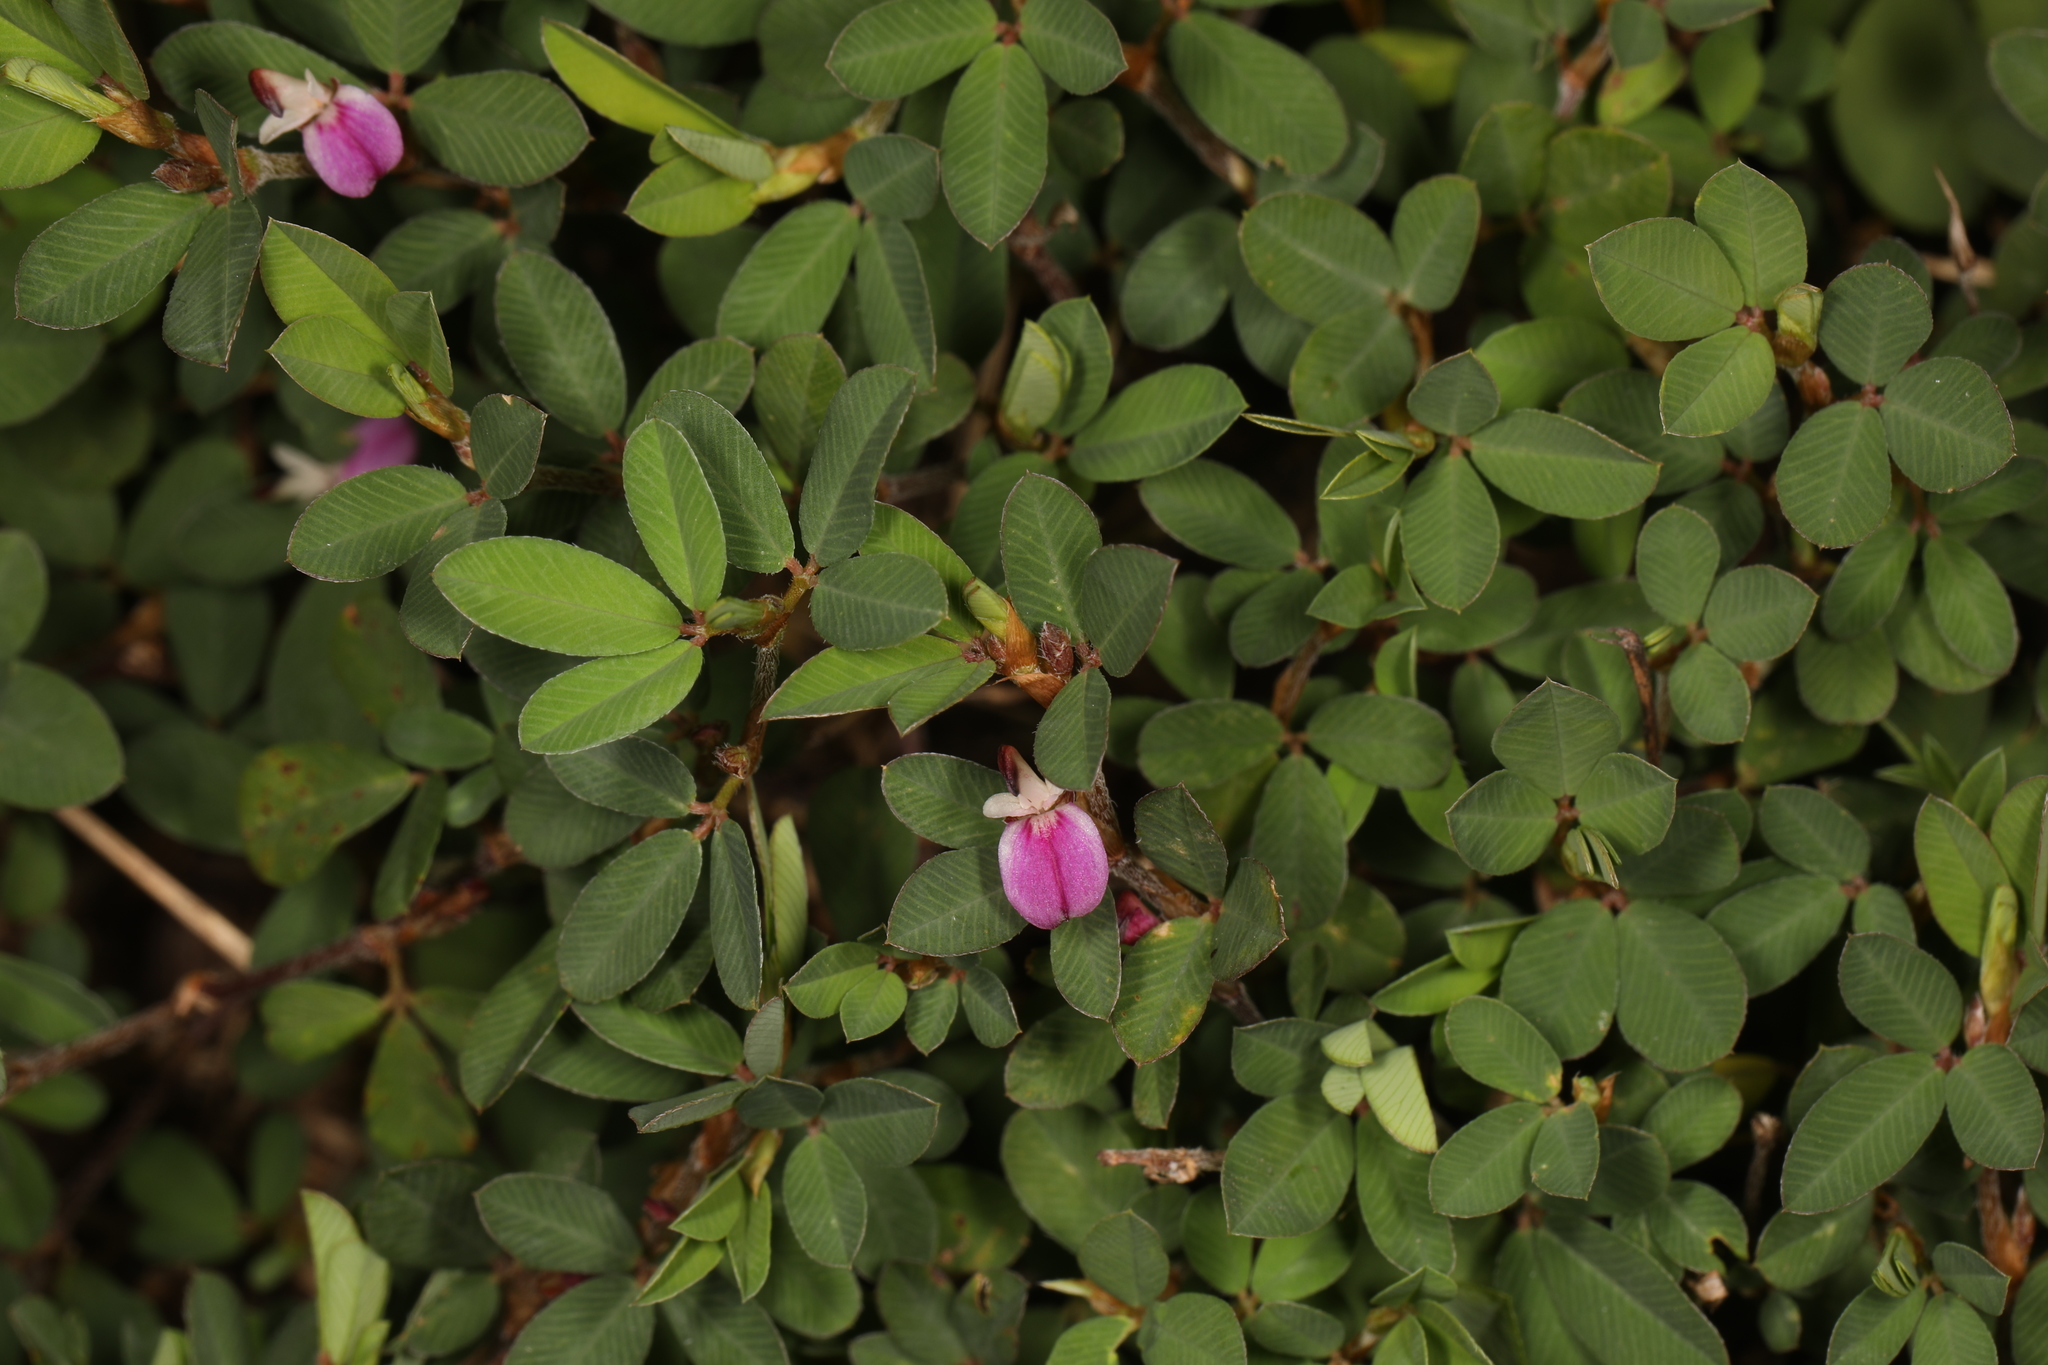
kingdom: Plantae
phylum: Tracheophyta
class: Magnoliopsida
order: Fabales
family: Fabaceae
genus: Kummerowia
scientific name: Kummerowia striata
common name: Japanese clover
